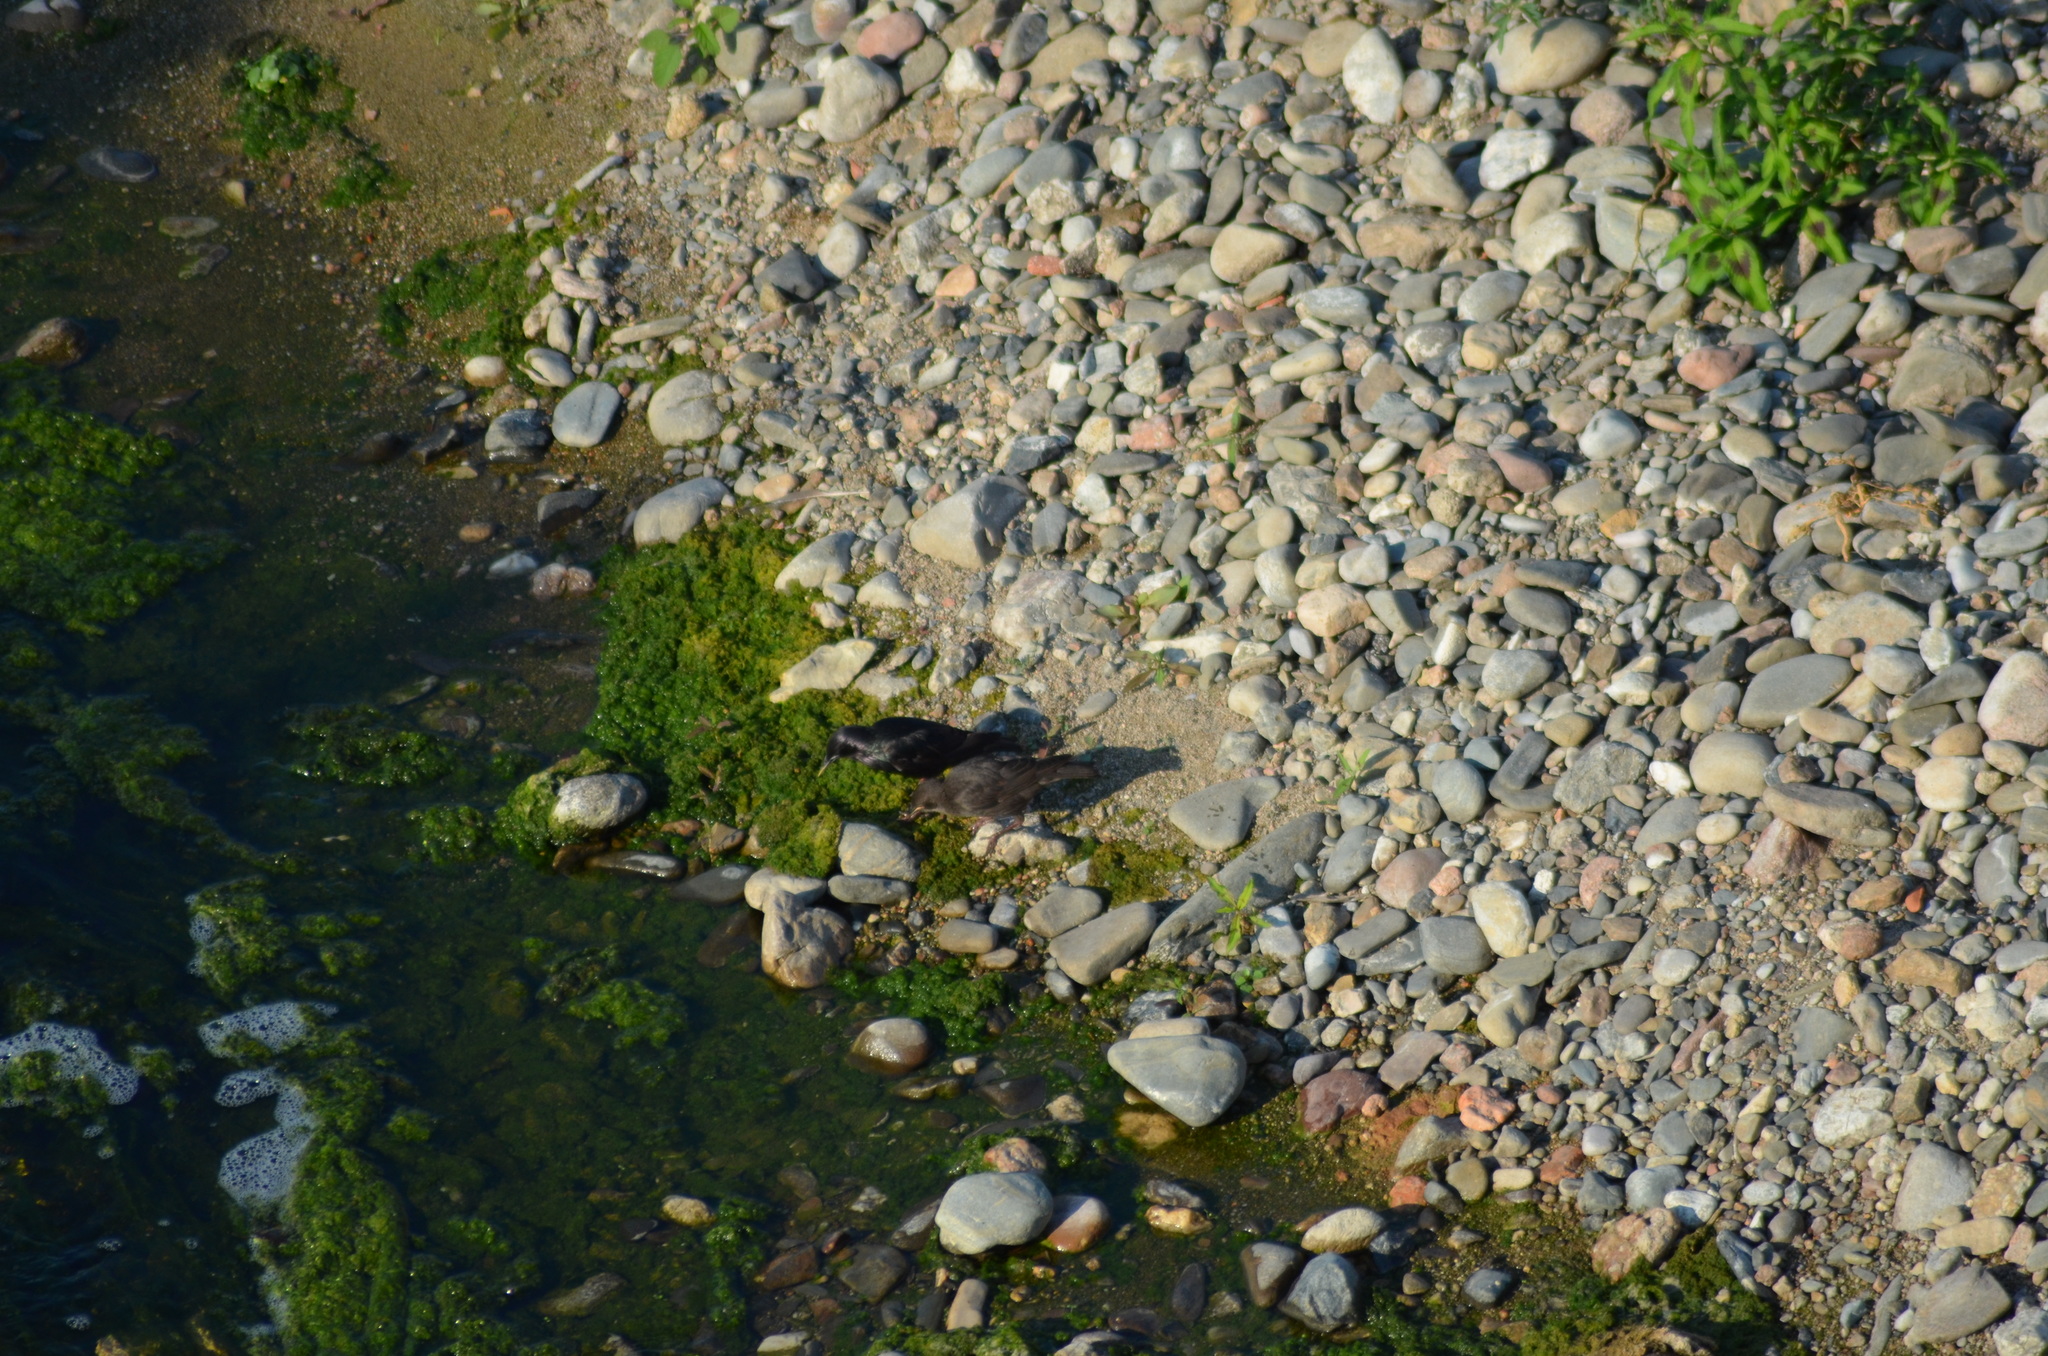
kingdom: Animalia
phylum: Chordata
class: Aves
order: Passeriformes
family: Sturnidae
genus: Sturnus
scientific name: Sturnus unicolor
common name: Spotless starling
